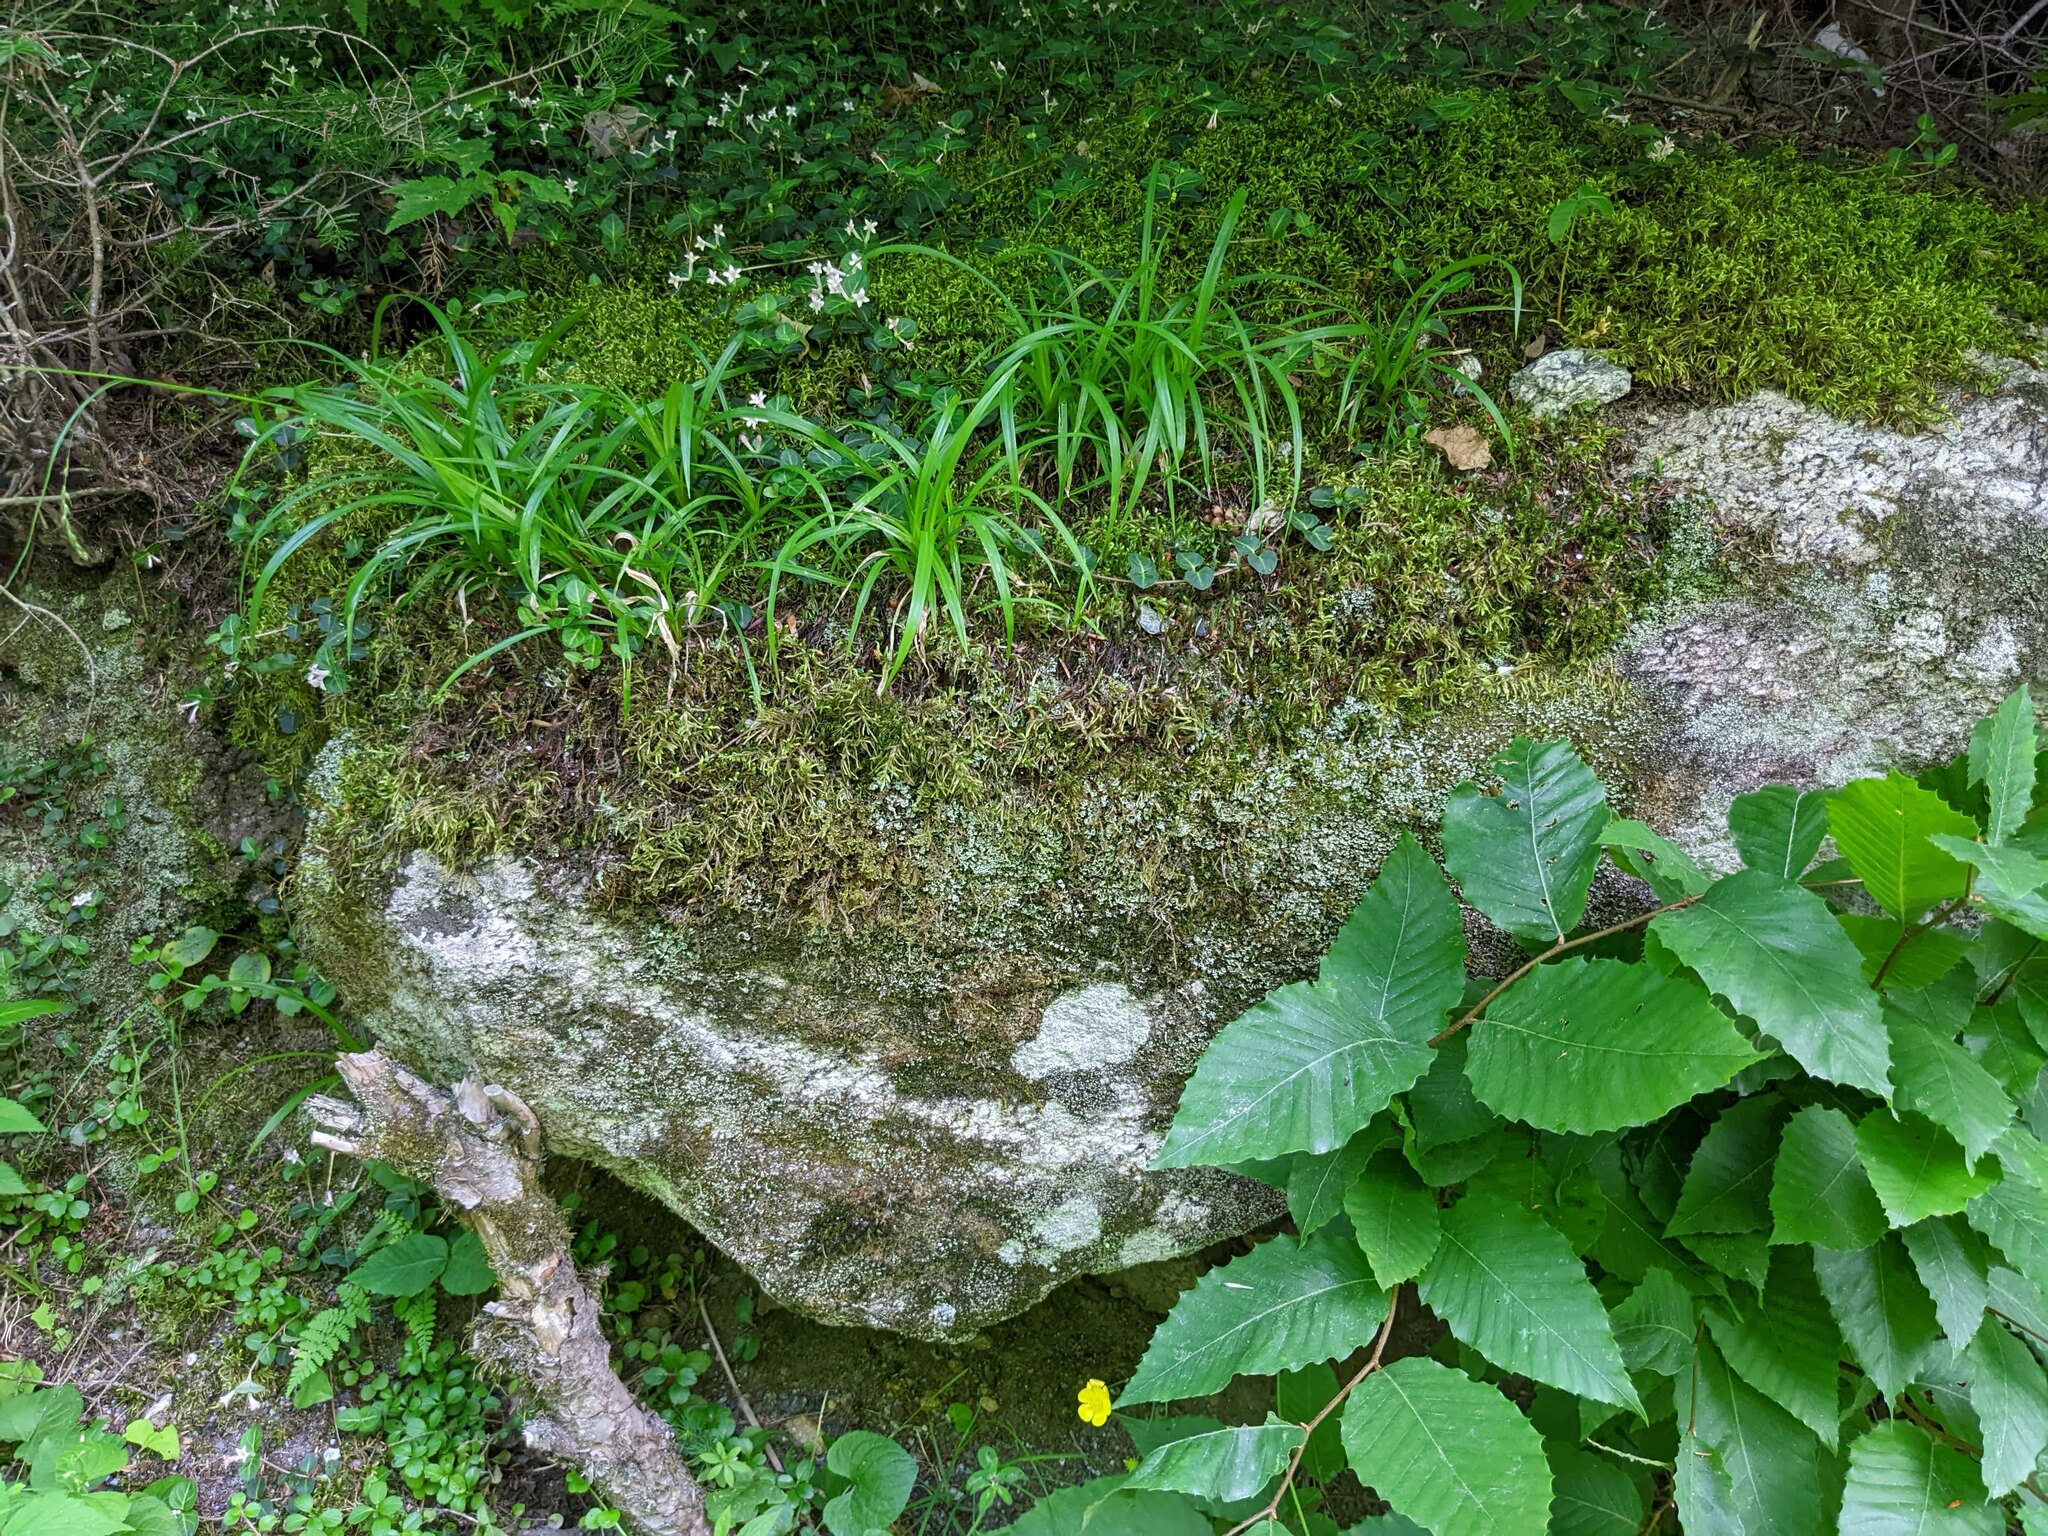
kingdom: Plantae
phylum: Tracheophyta
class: Magnoliopsida
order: Gentianales
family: Rubiaceae
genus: Mitchella
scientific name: Mitchella repens
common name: Partridge-berry
